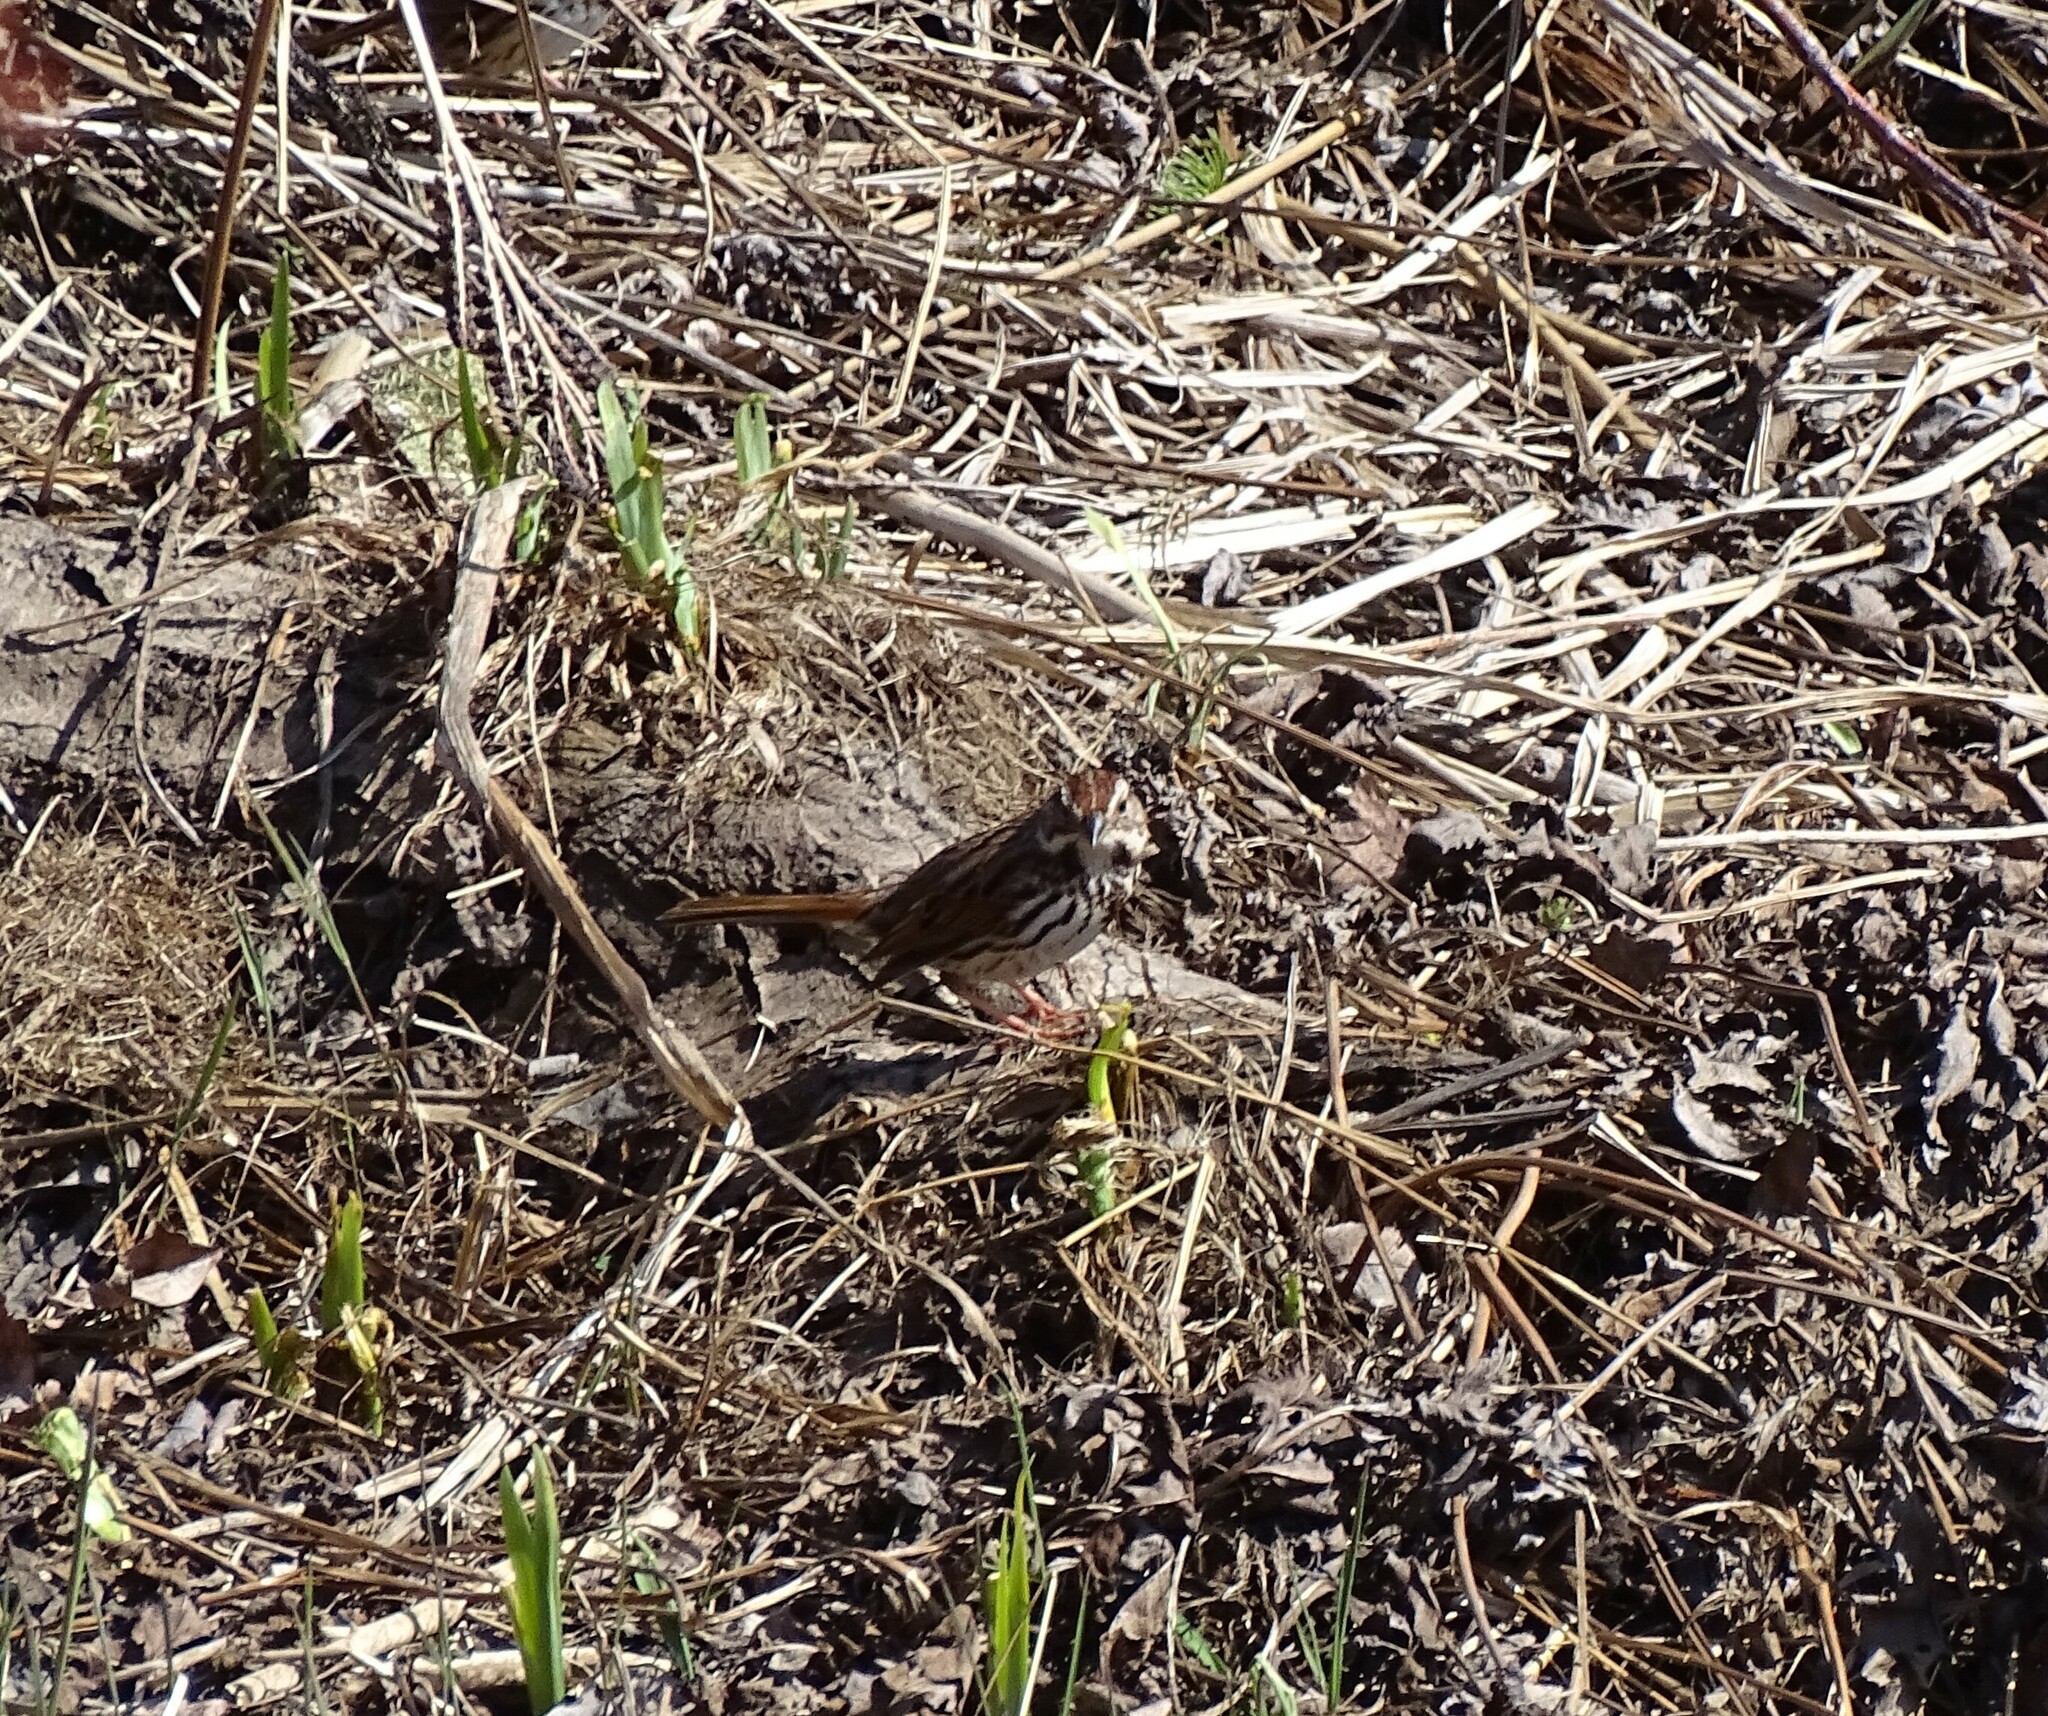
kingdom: Animalia
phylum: Chordata
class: Aves
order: Passeriformes
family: Passerellidae
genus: Melospiza
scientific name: Melospiza melodia
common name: Song sparrow
